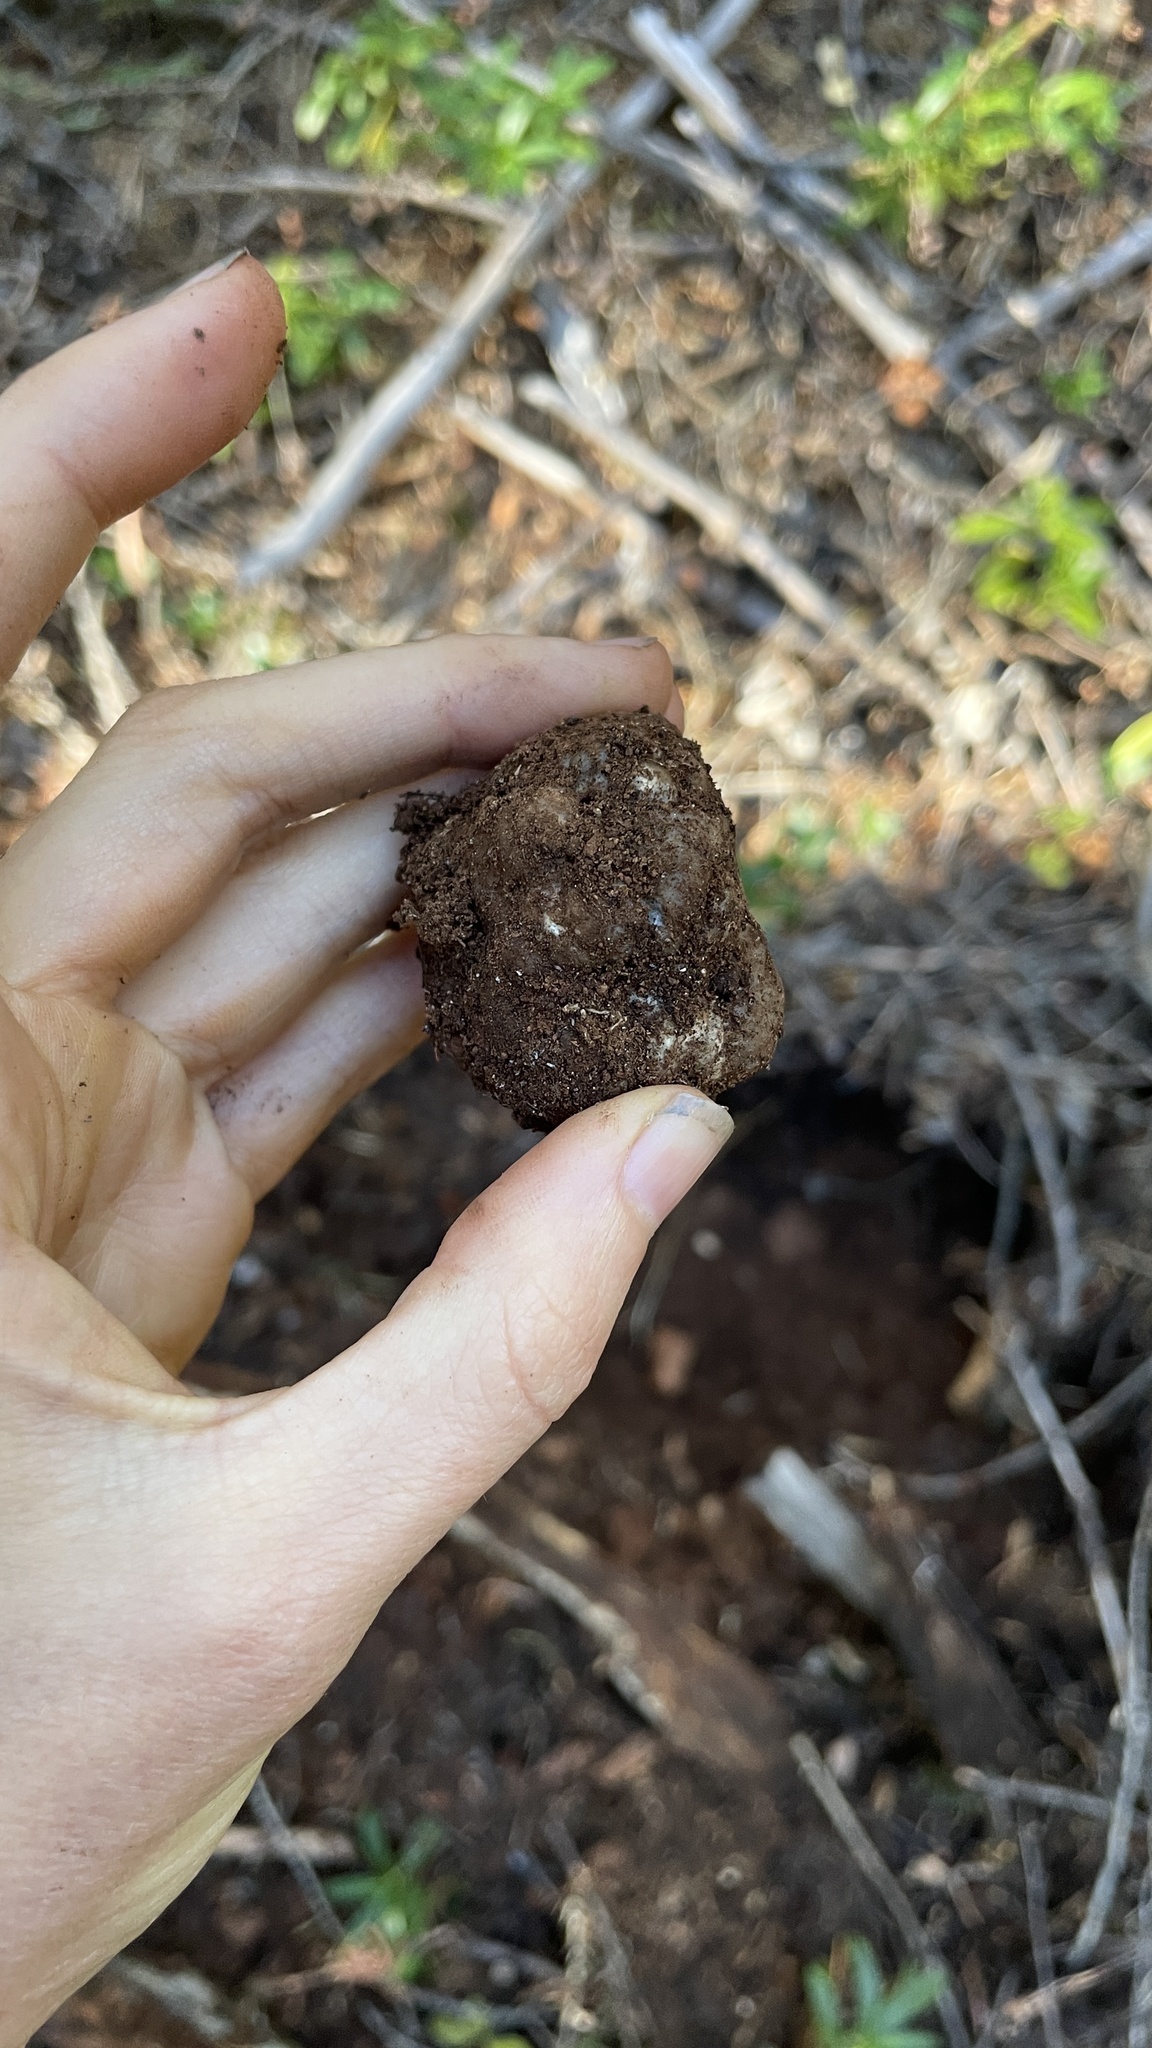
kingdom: Fungi
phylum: Ascomycota
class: Pezizomycetes
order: Pezizales
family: Tuberaceae
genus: Tuber
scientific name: Tuber anniae
